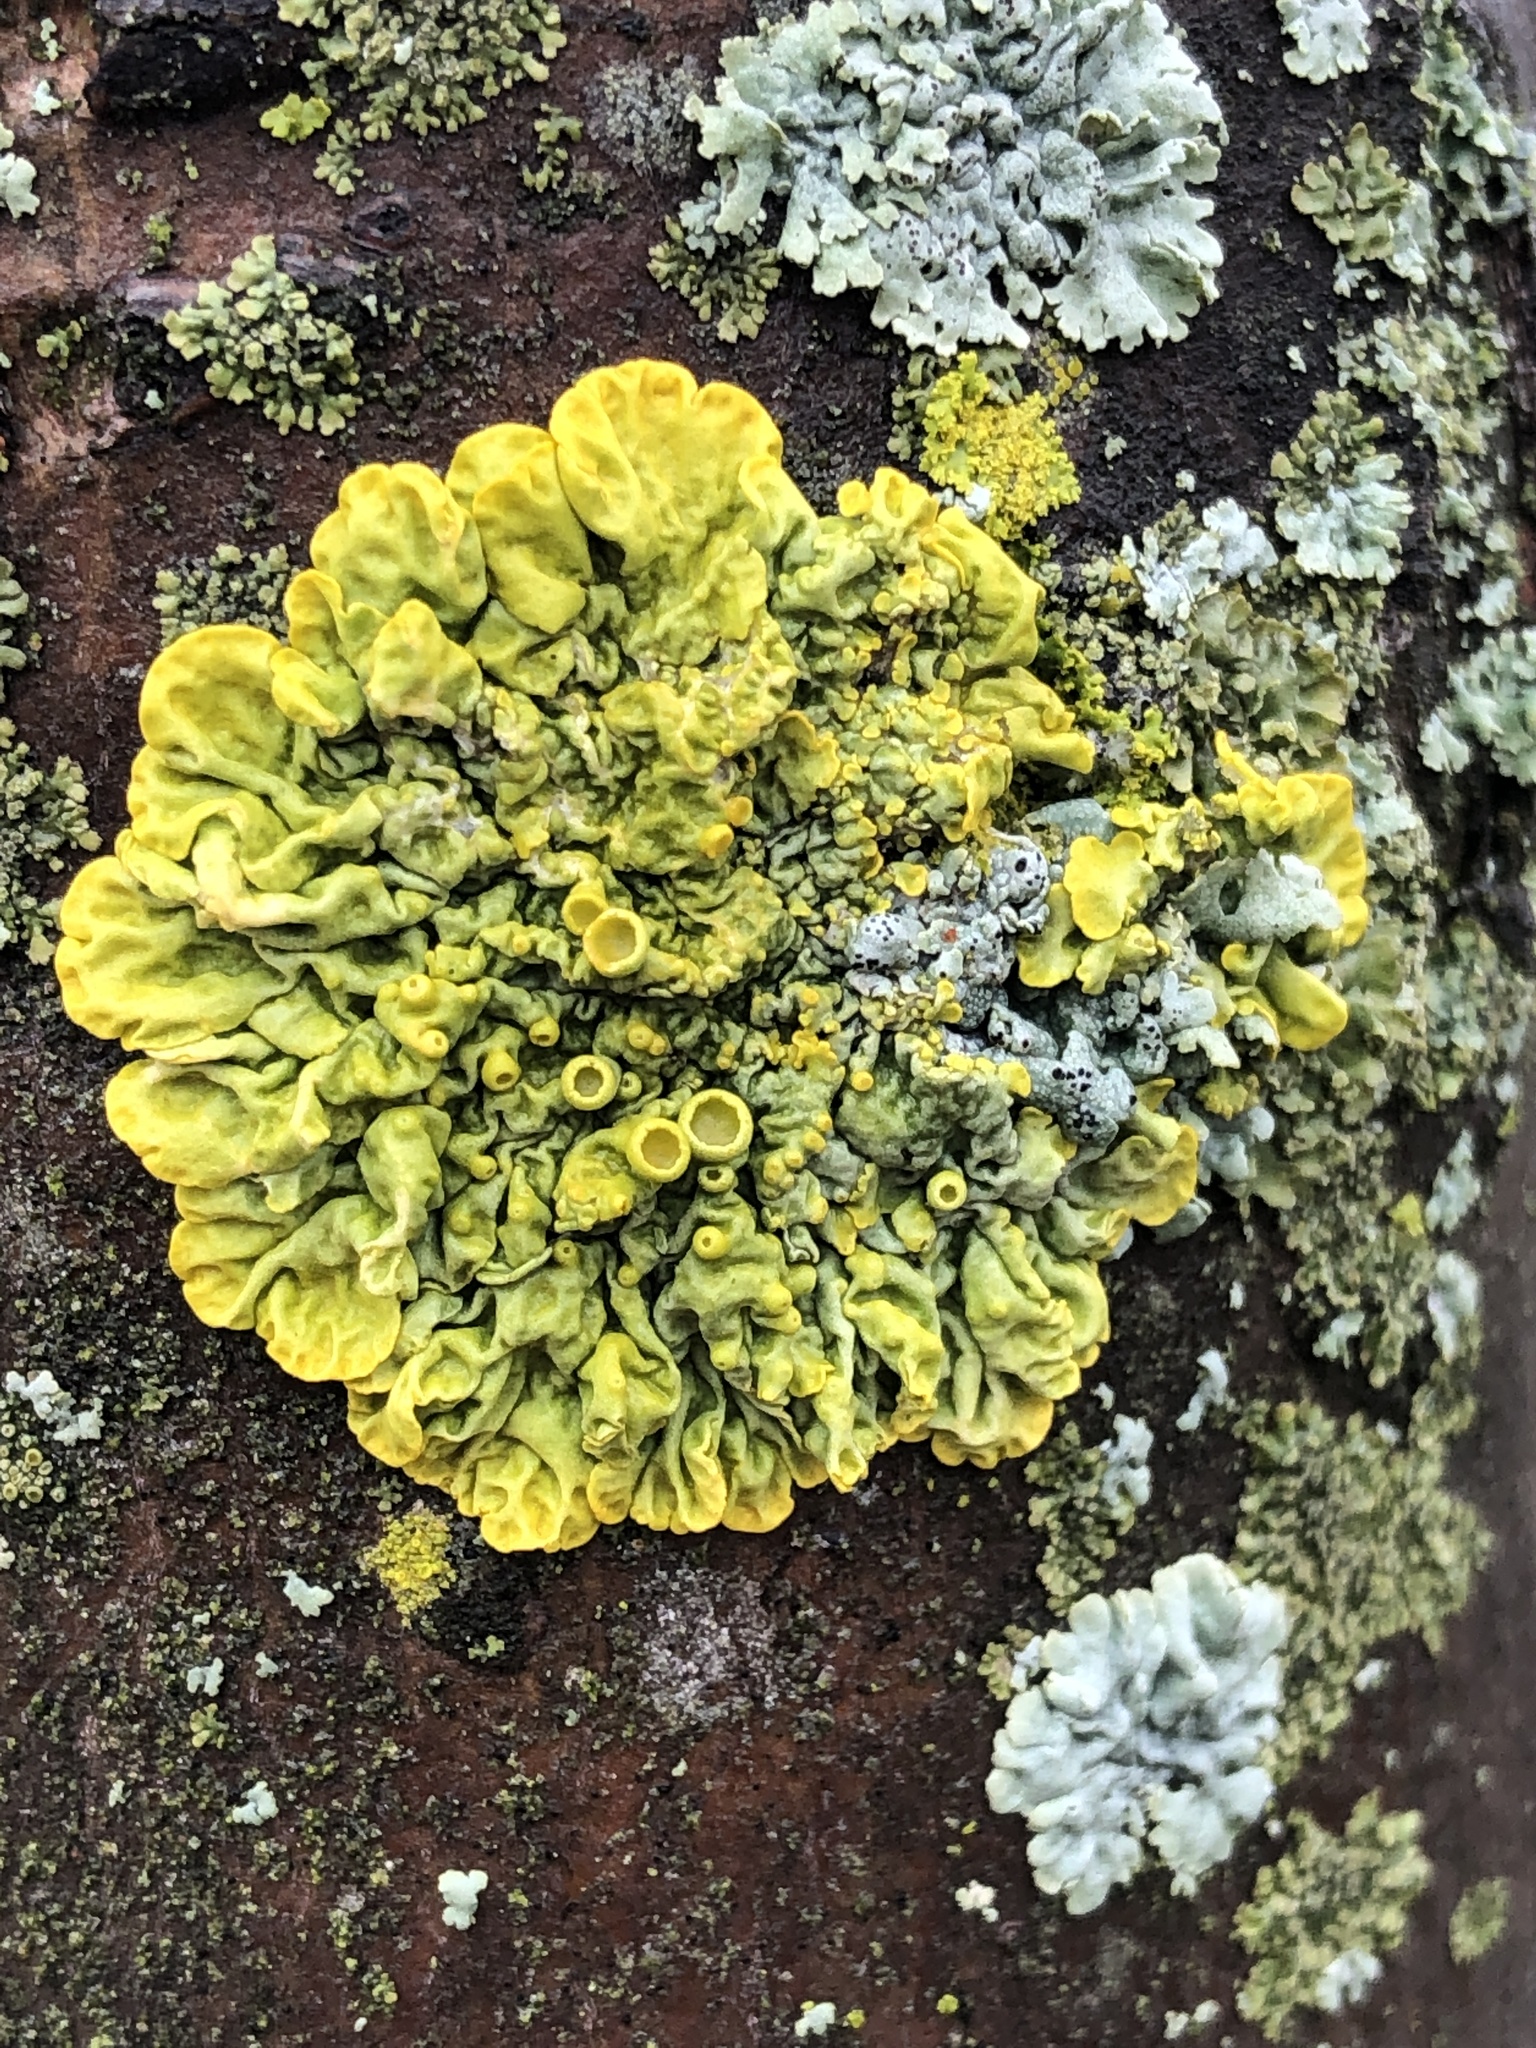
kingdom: Fungi
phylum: Ascomycota
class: Lecanoromycetes
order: Teloschistales
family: Teloschistaceae
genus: Xanthoria
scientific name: Xanthoria parietina
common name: Common orange lichen
